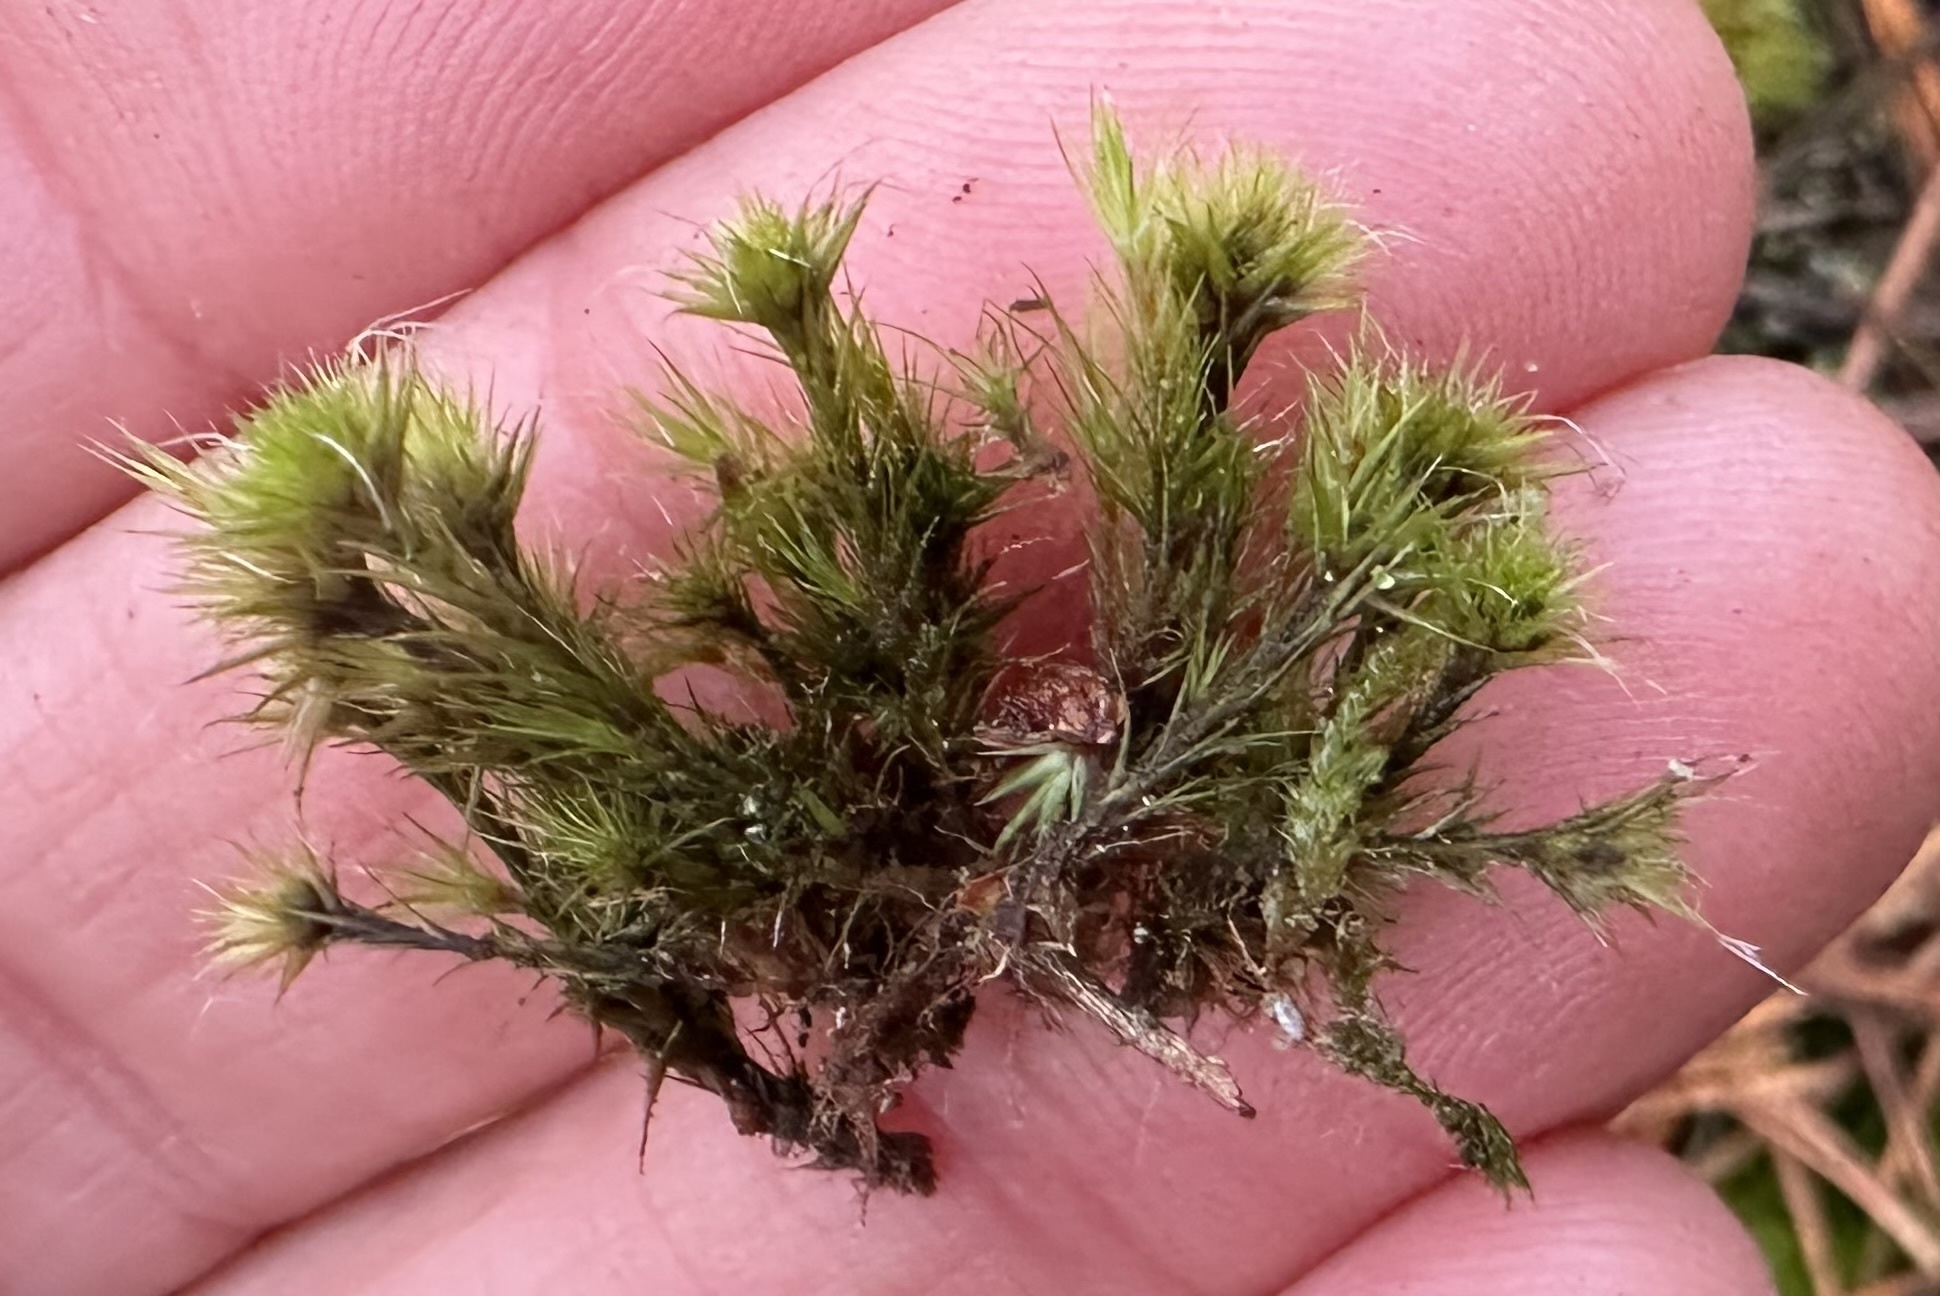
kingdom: Plantae
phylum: Bryophyta
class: Bryopsida
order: Dicranales
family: Leucobryaceae
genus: Campylopus
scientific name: Campylopus introflexus
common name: Heath star moss
